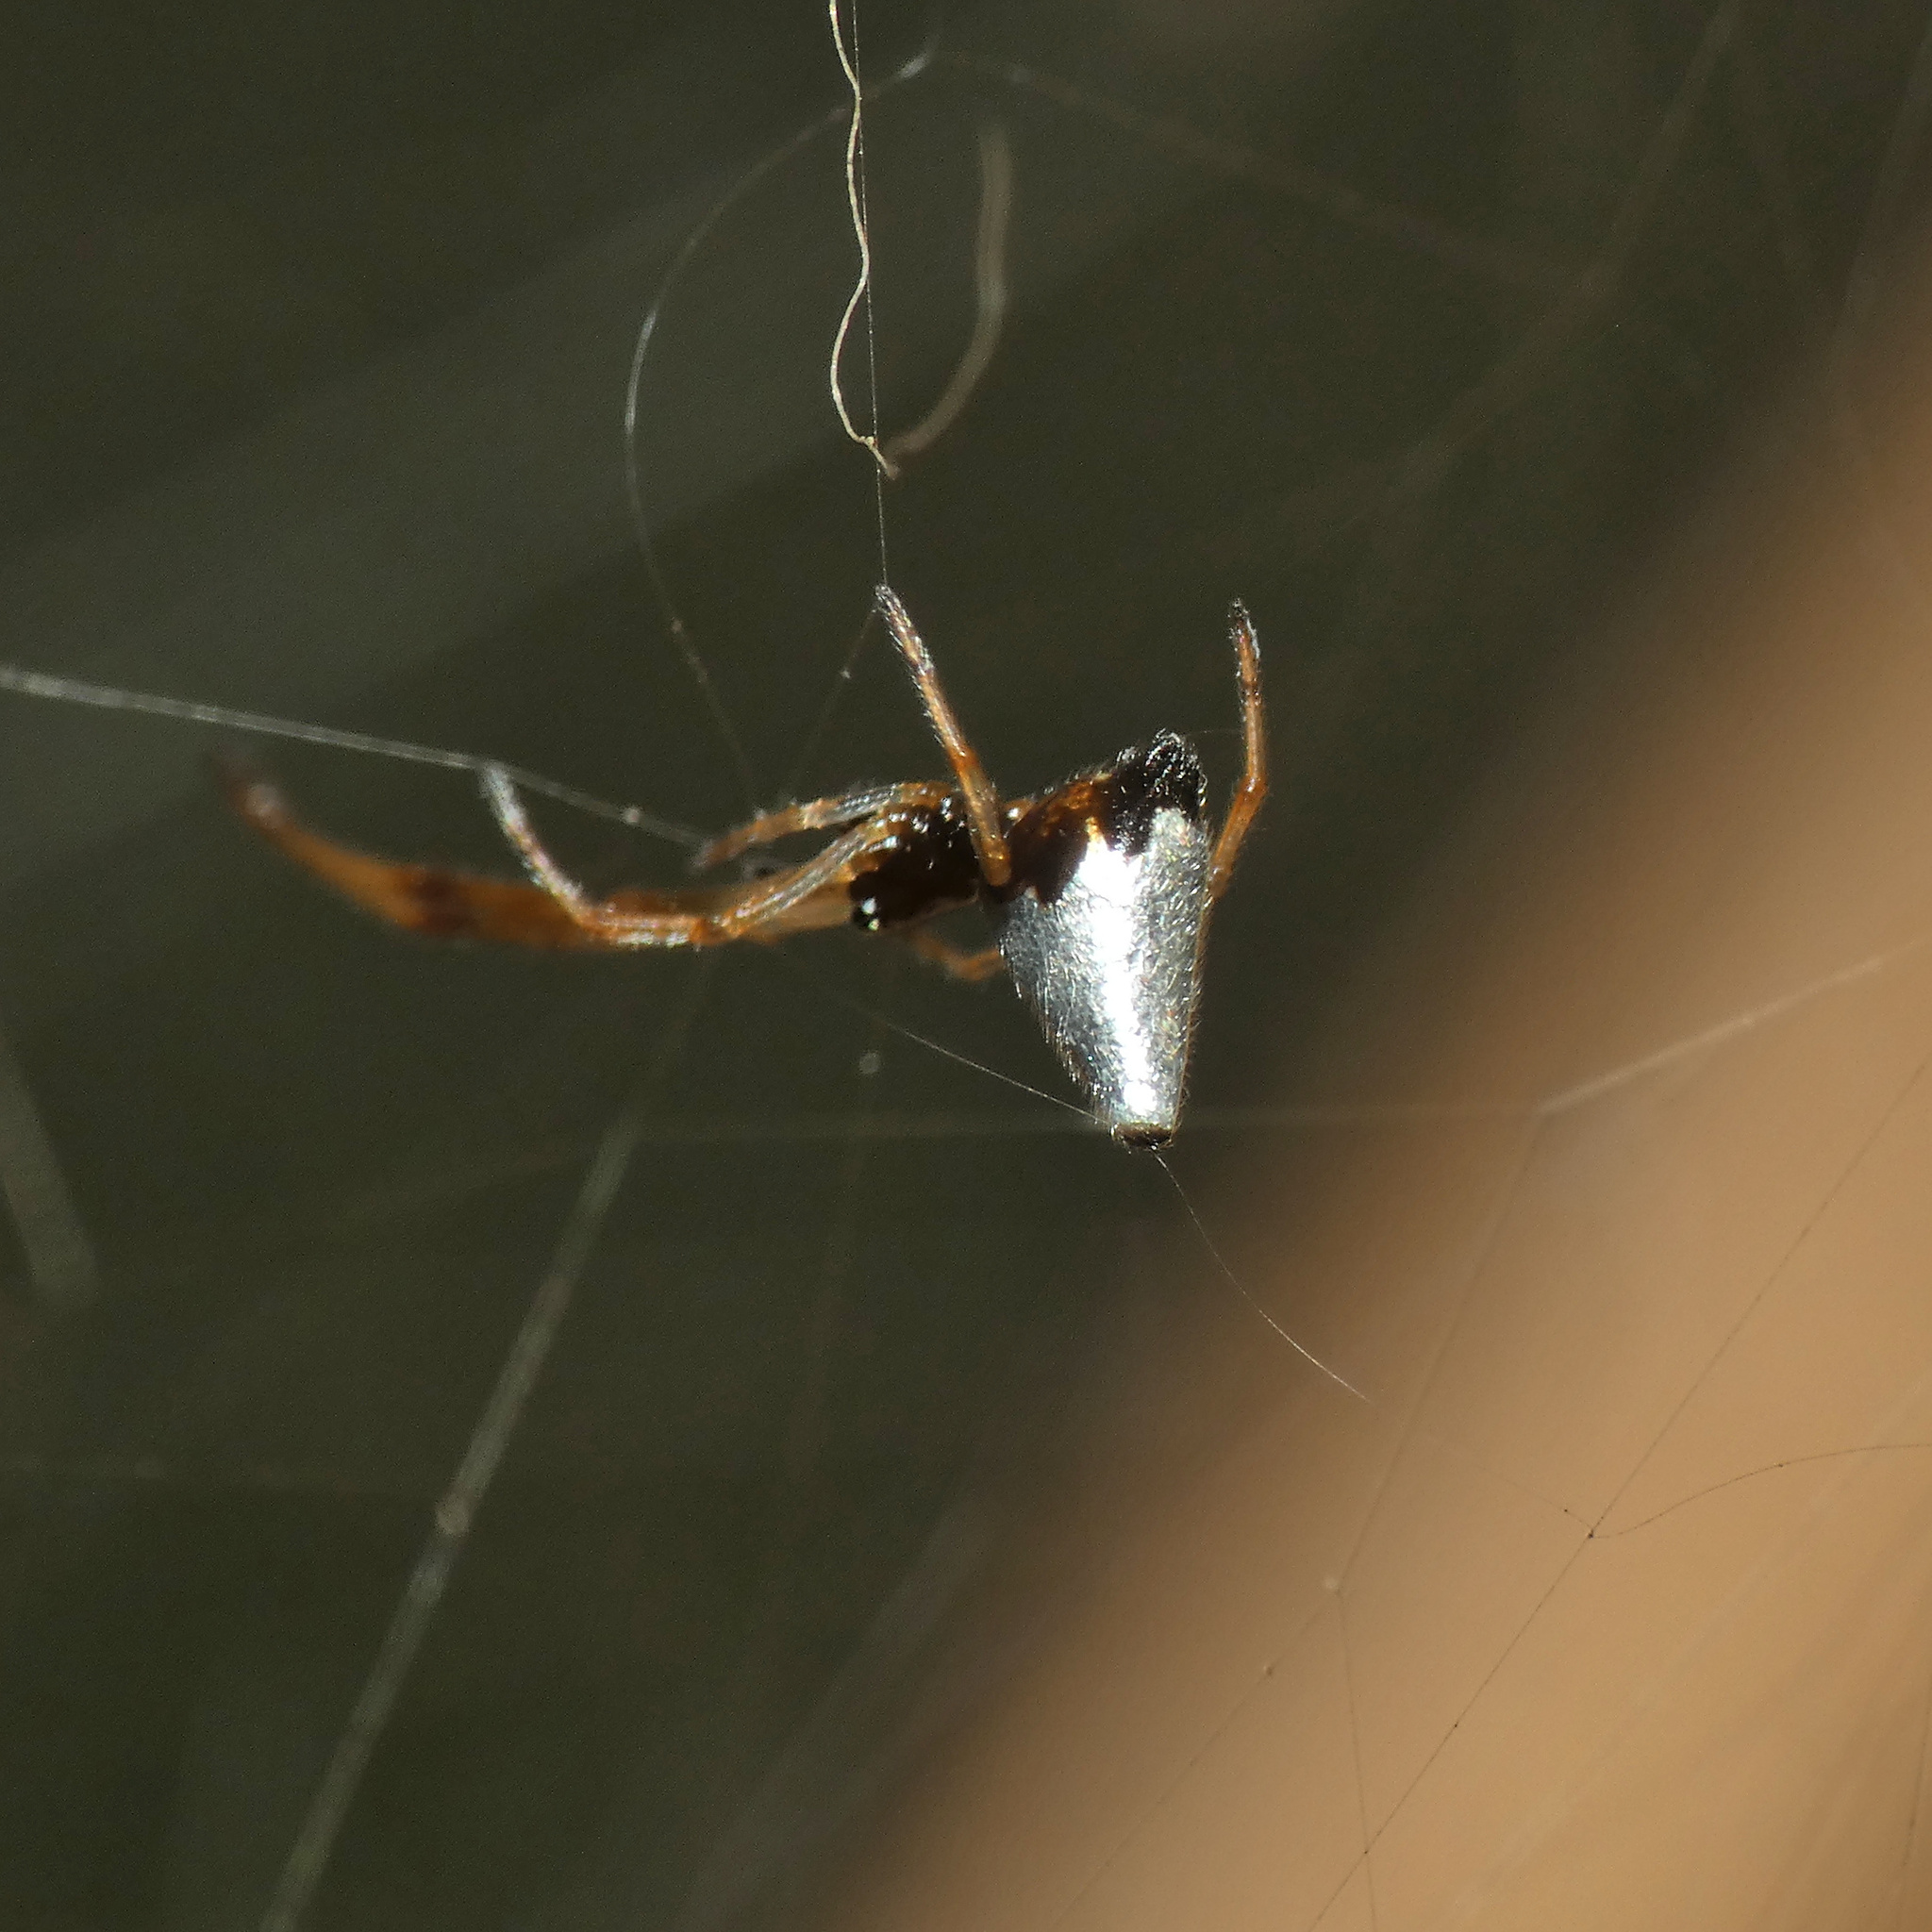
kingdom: Animalia
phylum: Arthropoda
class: Arachnida
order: Araneae
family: Theridiidae
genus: Argyrodes
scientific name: Argyrodes argyrodes
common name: Dewdrop spider
